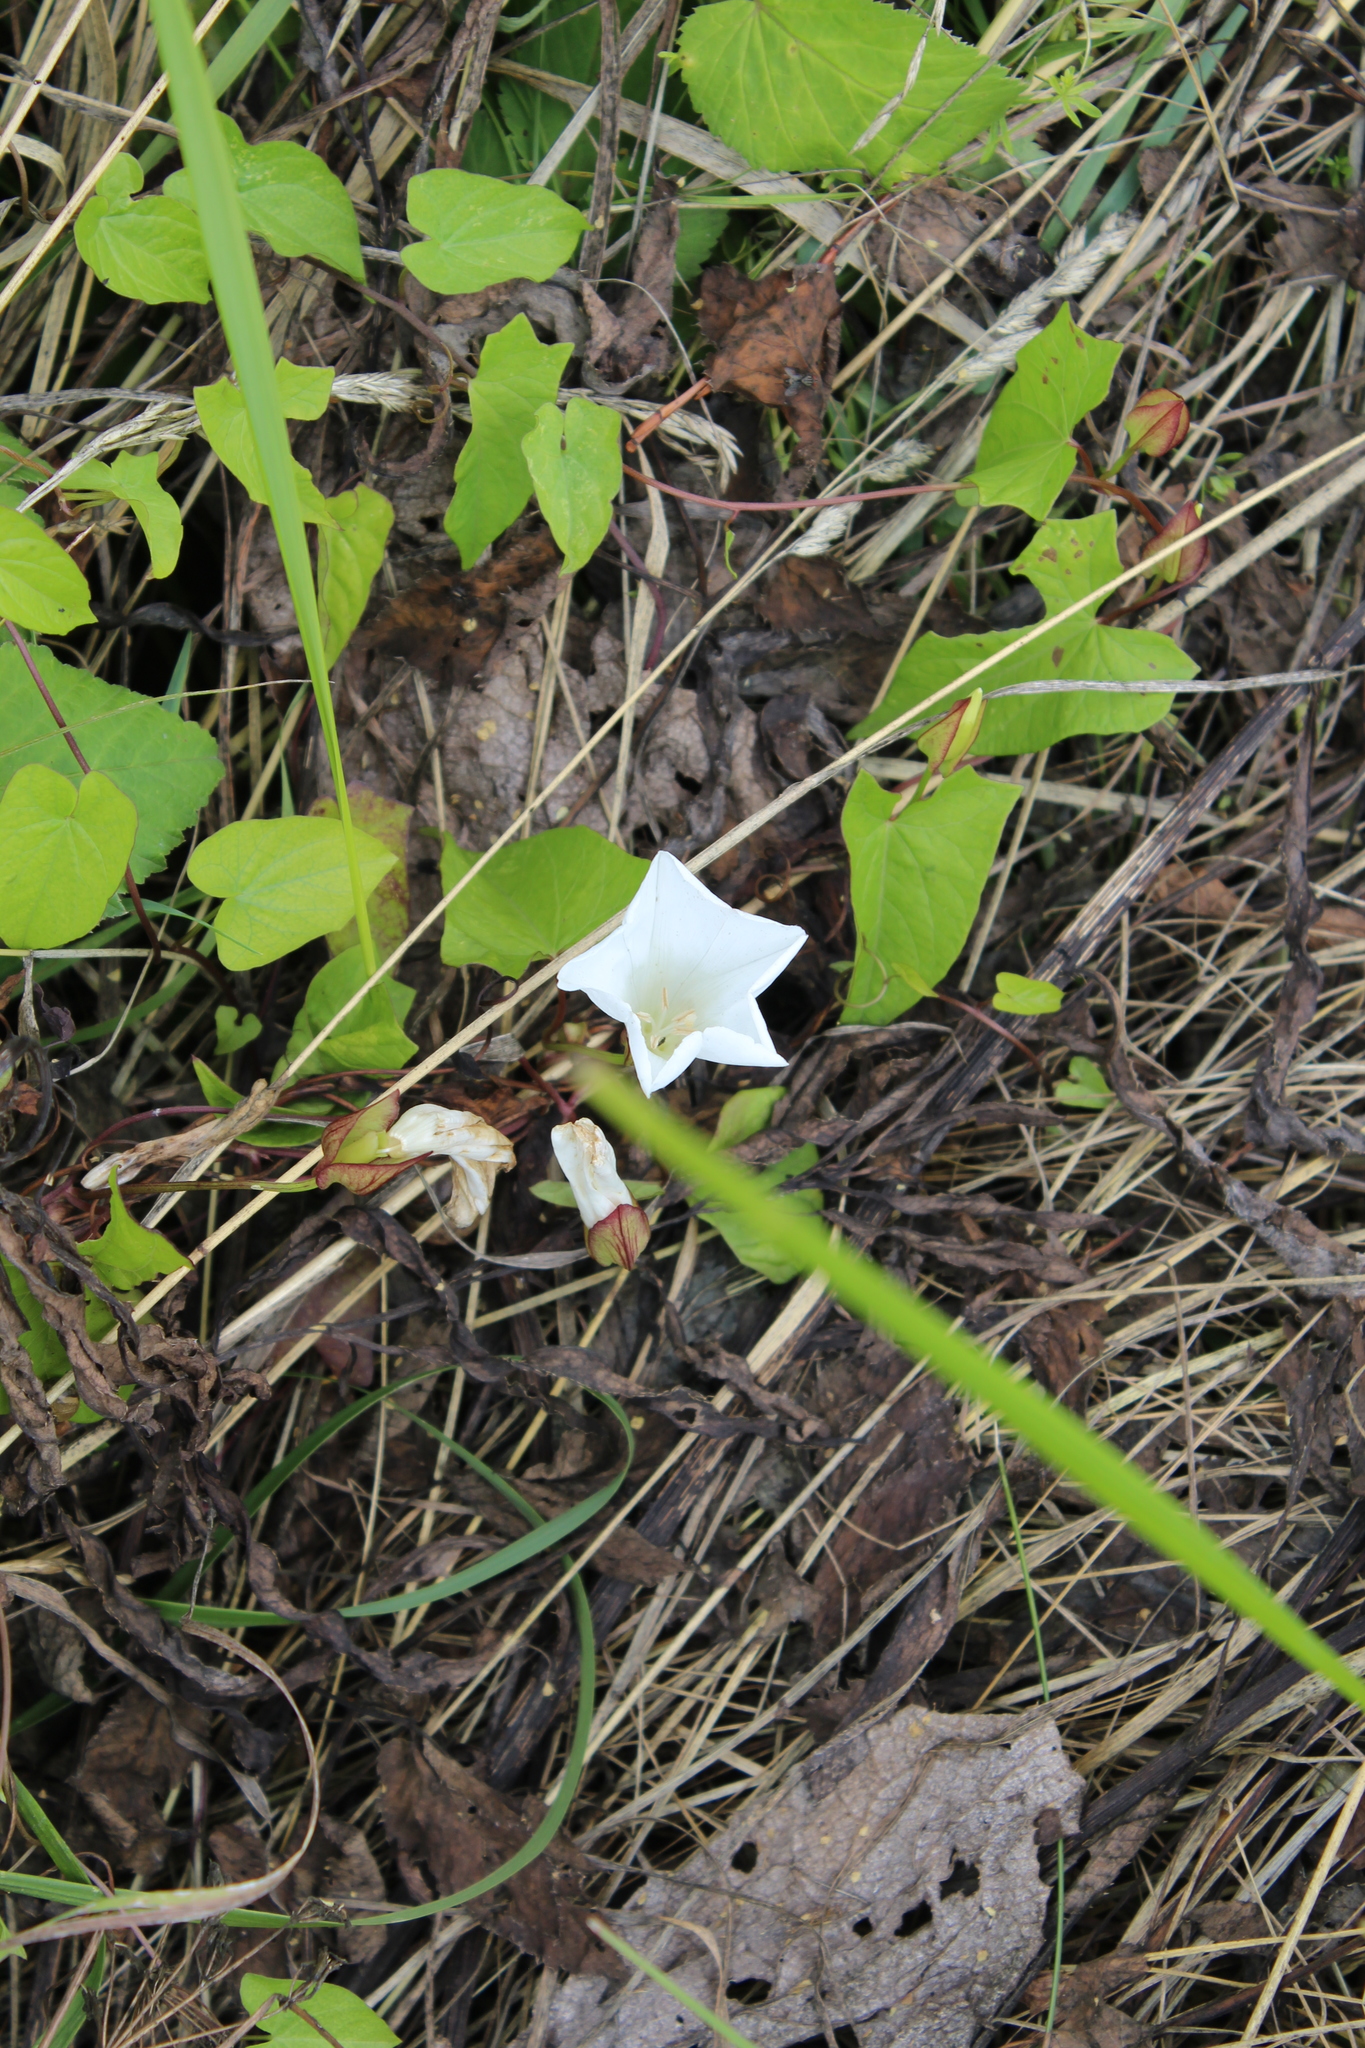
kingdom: Plantae
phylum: Tracheophyta
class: Magnoliopsida
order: Solanales
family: Convolvulaceae
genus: Calystegia
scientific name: Calystegia sepium
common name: Hedge bindweed
